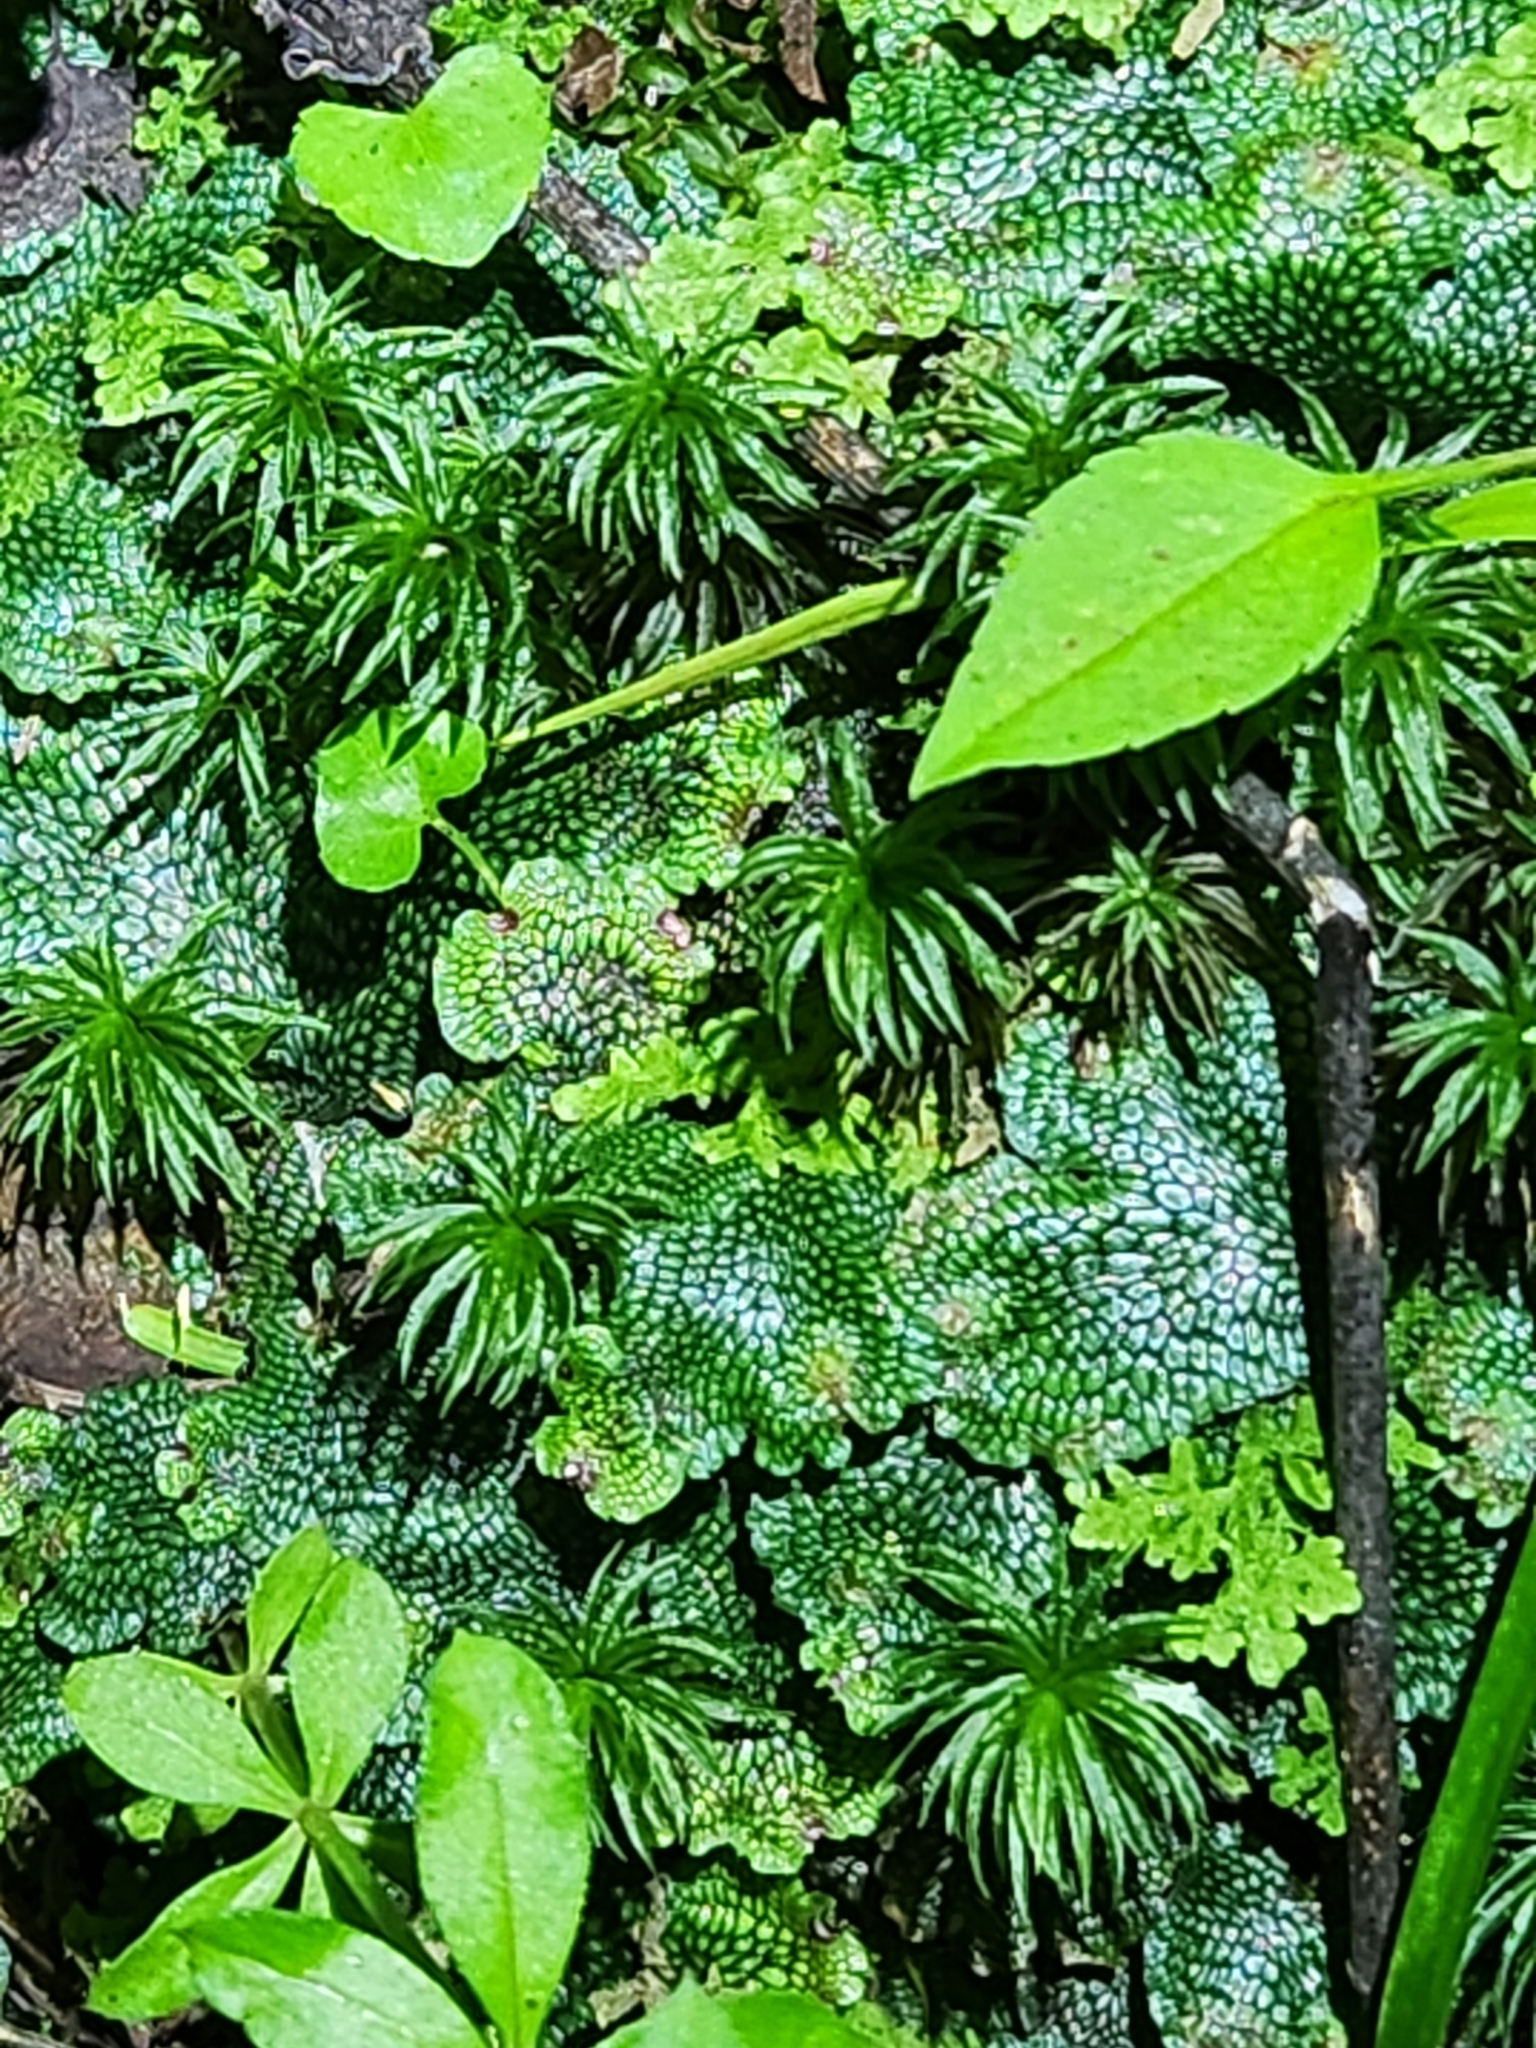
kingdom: Plantae
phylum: Marchantiophyta
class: Marchantiopsida
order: Marchantiales
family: Conocephalaceae
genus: Conocephalum
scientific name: Conocephalum salebrosum
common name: Cat-tongue liverwort
